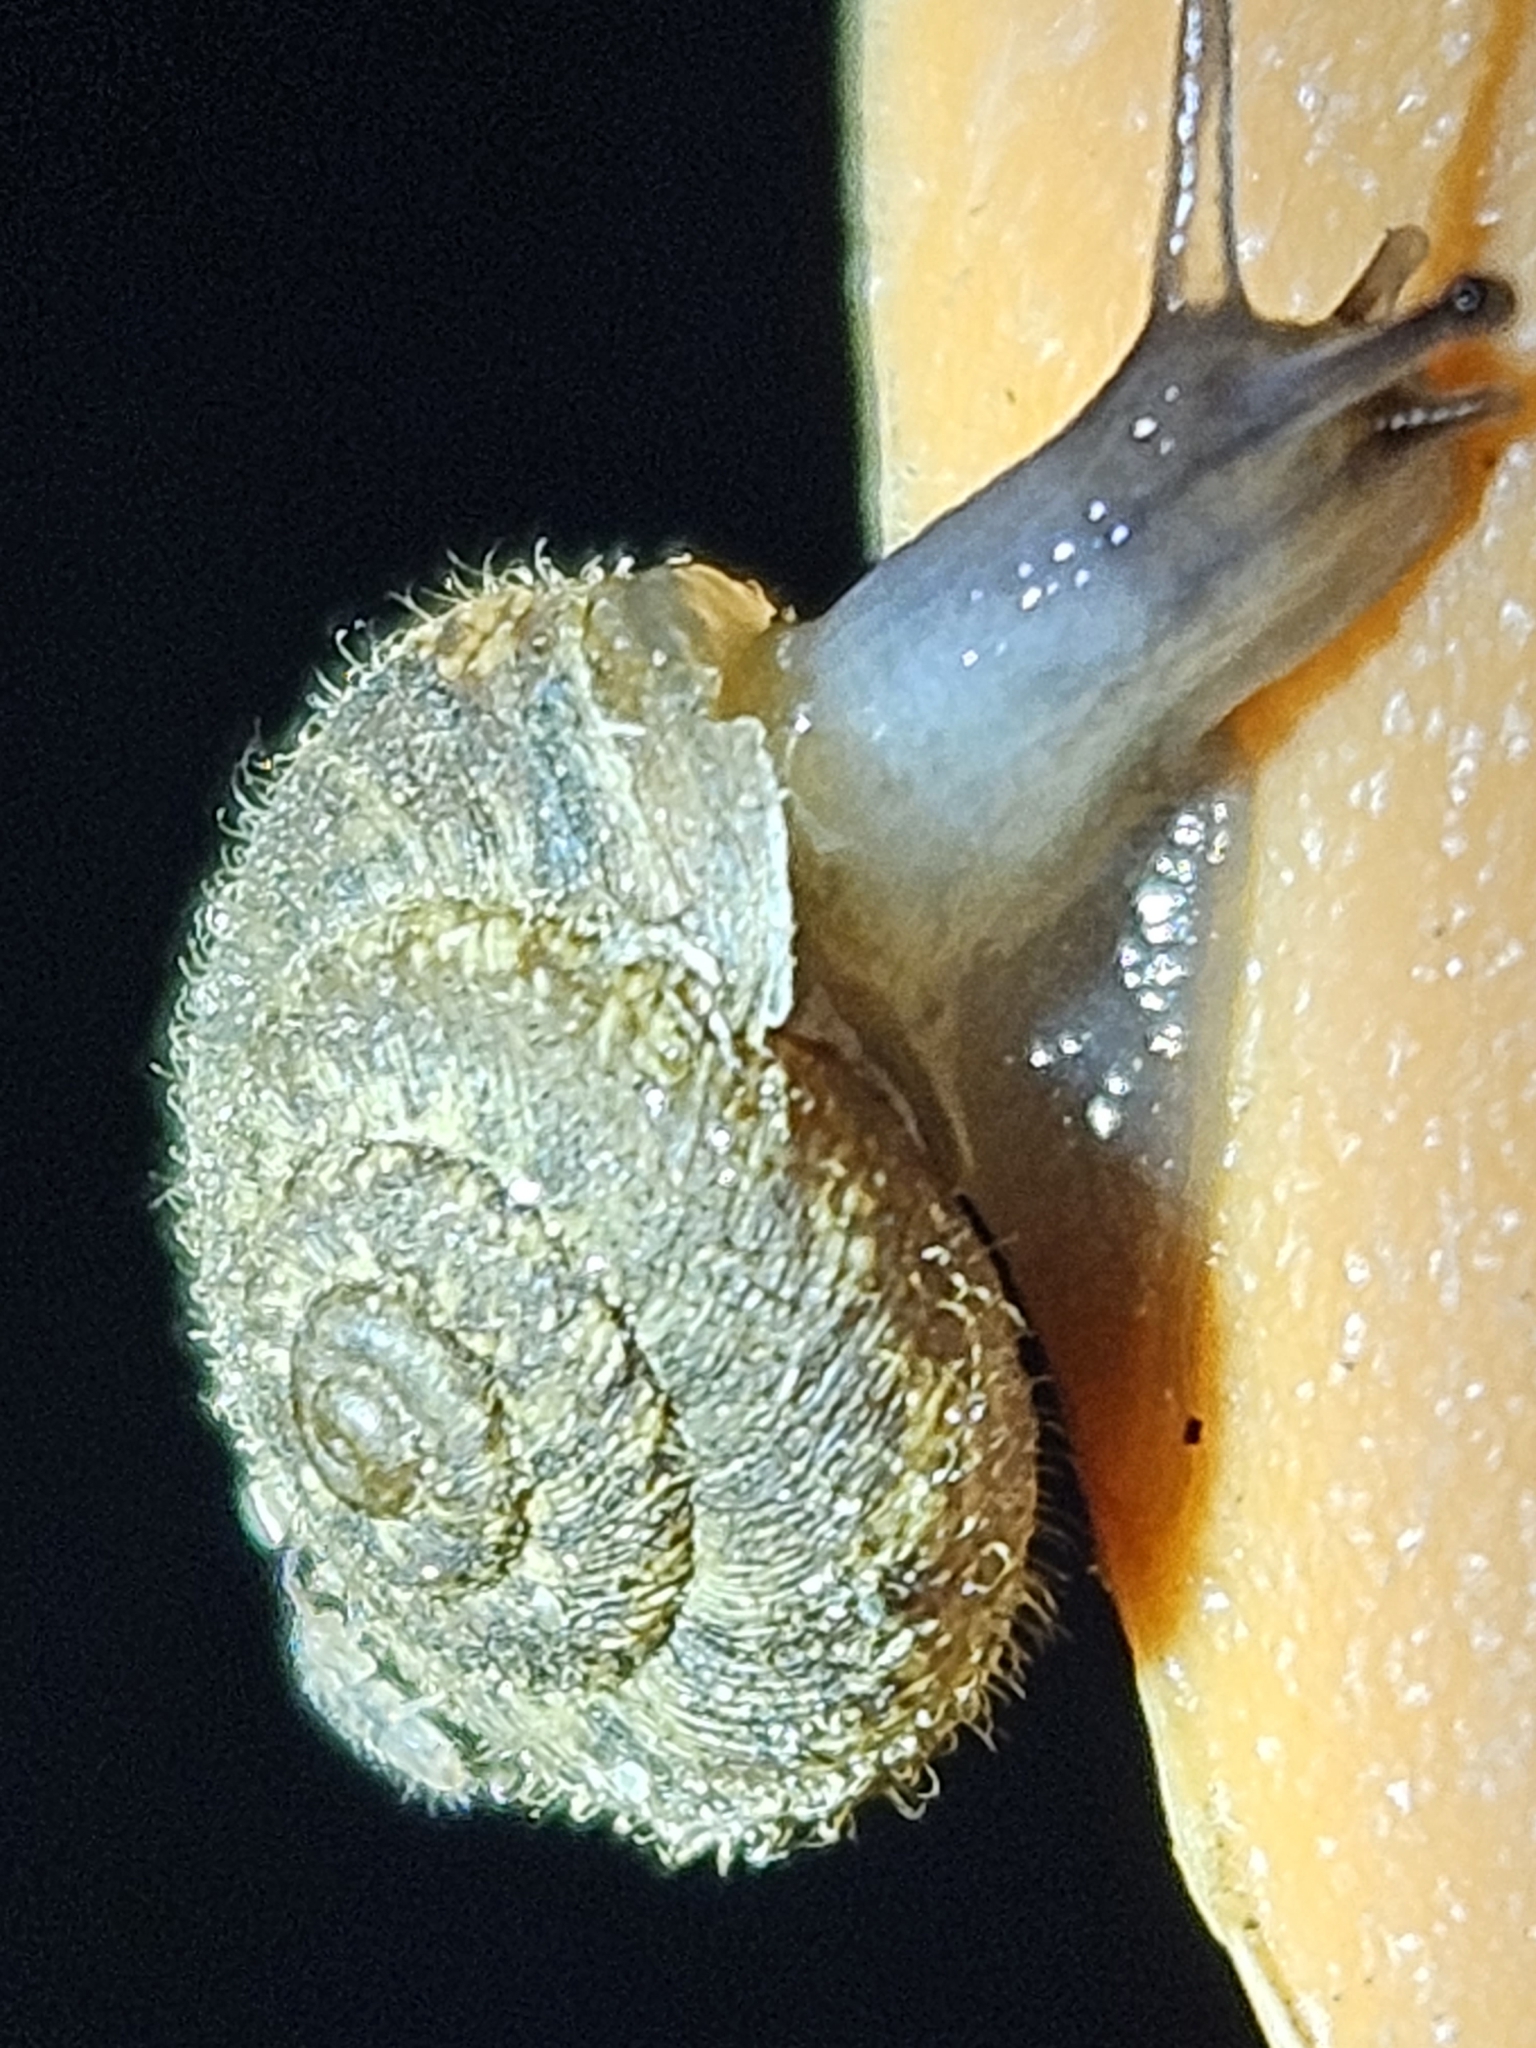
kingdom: Animalia
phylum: Mollusca
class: Gastropoda
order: Stylommatophora
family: Geomitridae
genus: Xerotricha
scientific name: Xerotricha conspurcata
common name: Snail
